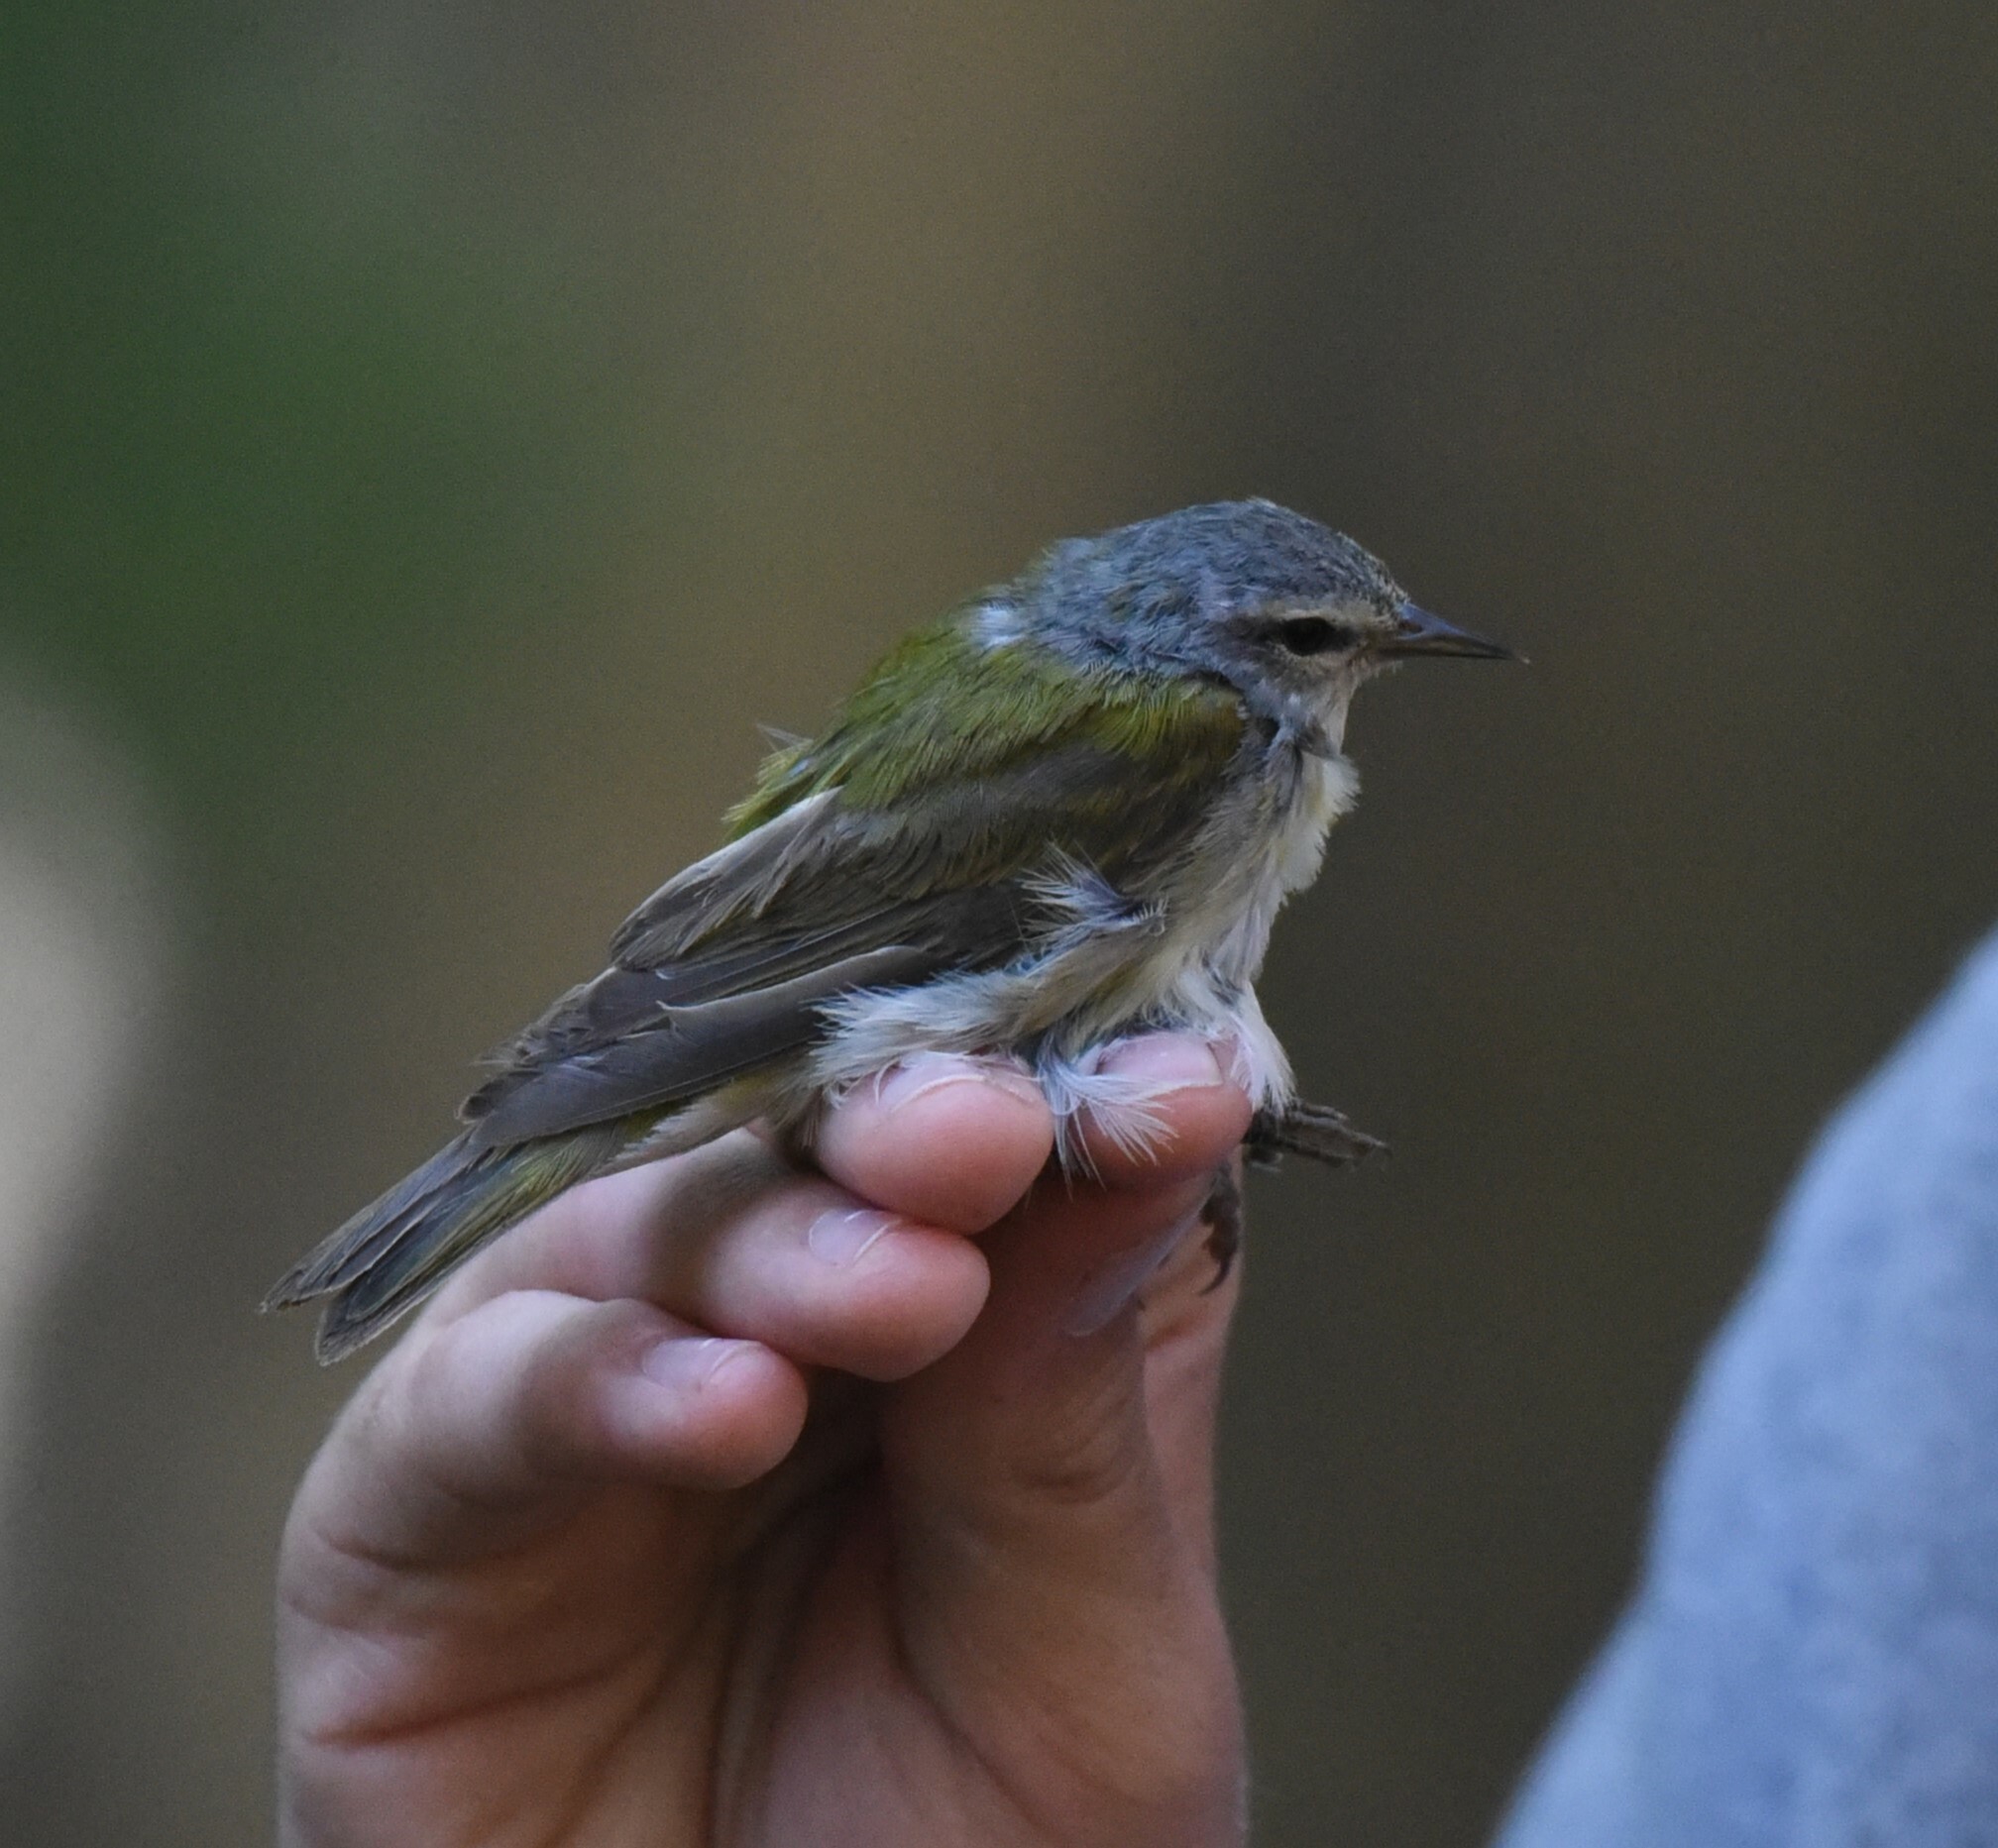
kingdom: Animalia
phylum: Chordata
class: Aves
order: Passeriformes
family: Parulidae
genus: Leiothlypis
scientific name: Leiothlypis peregrina
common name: Tennessee warbler
